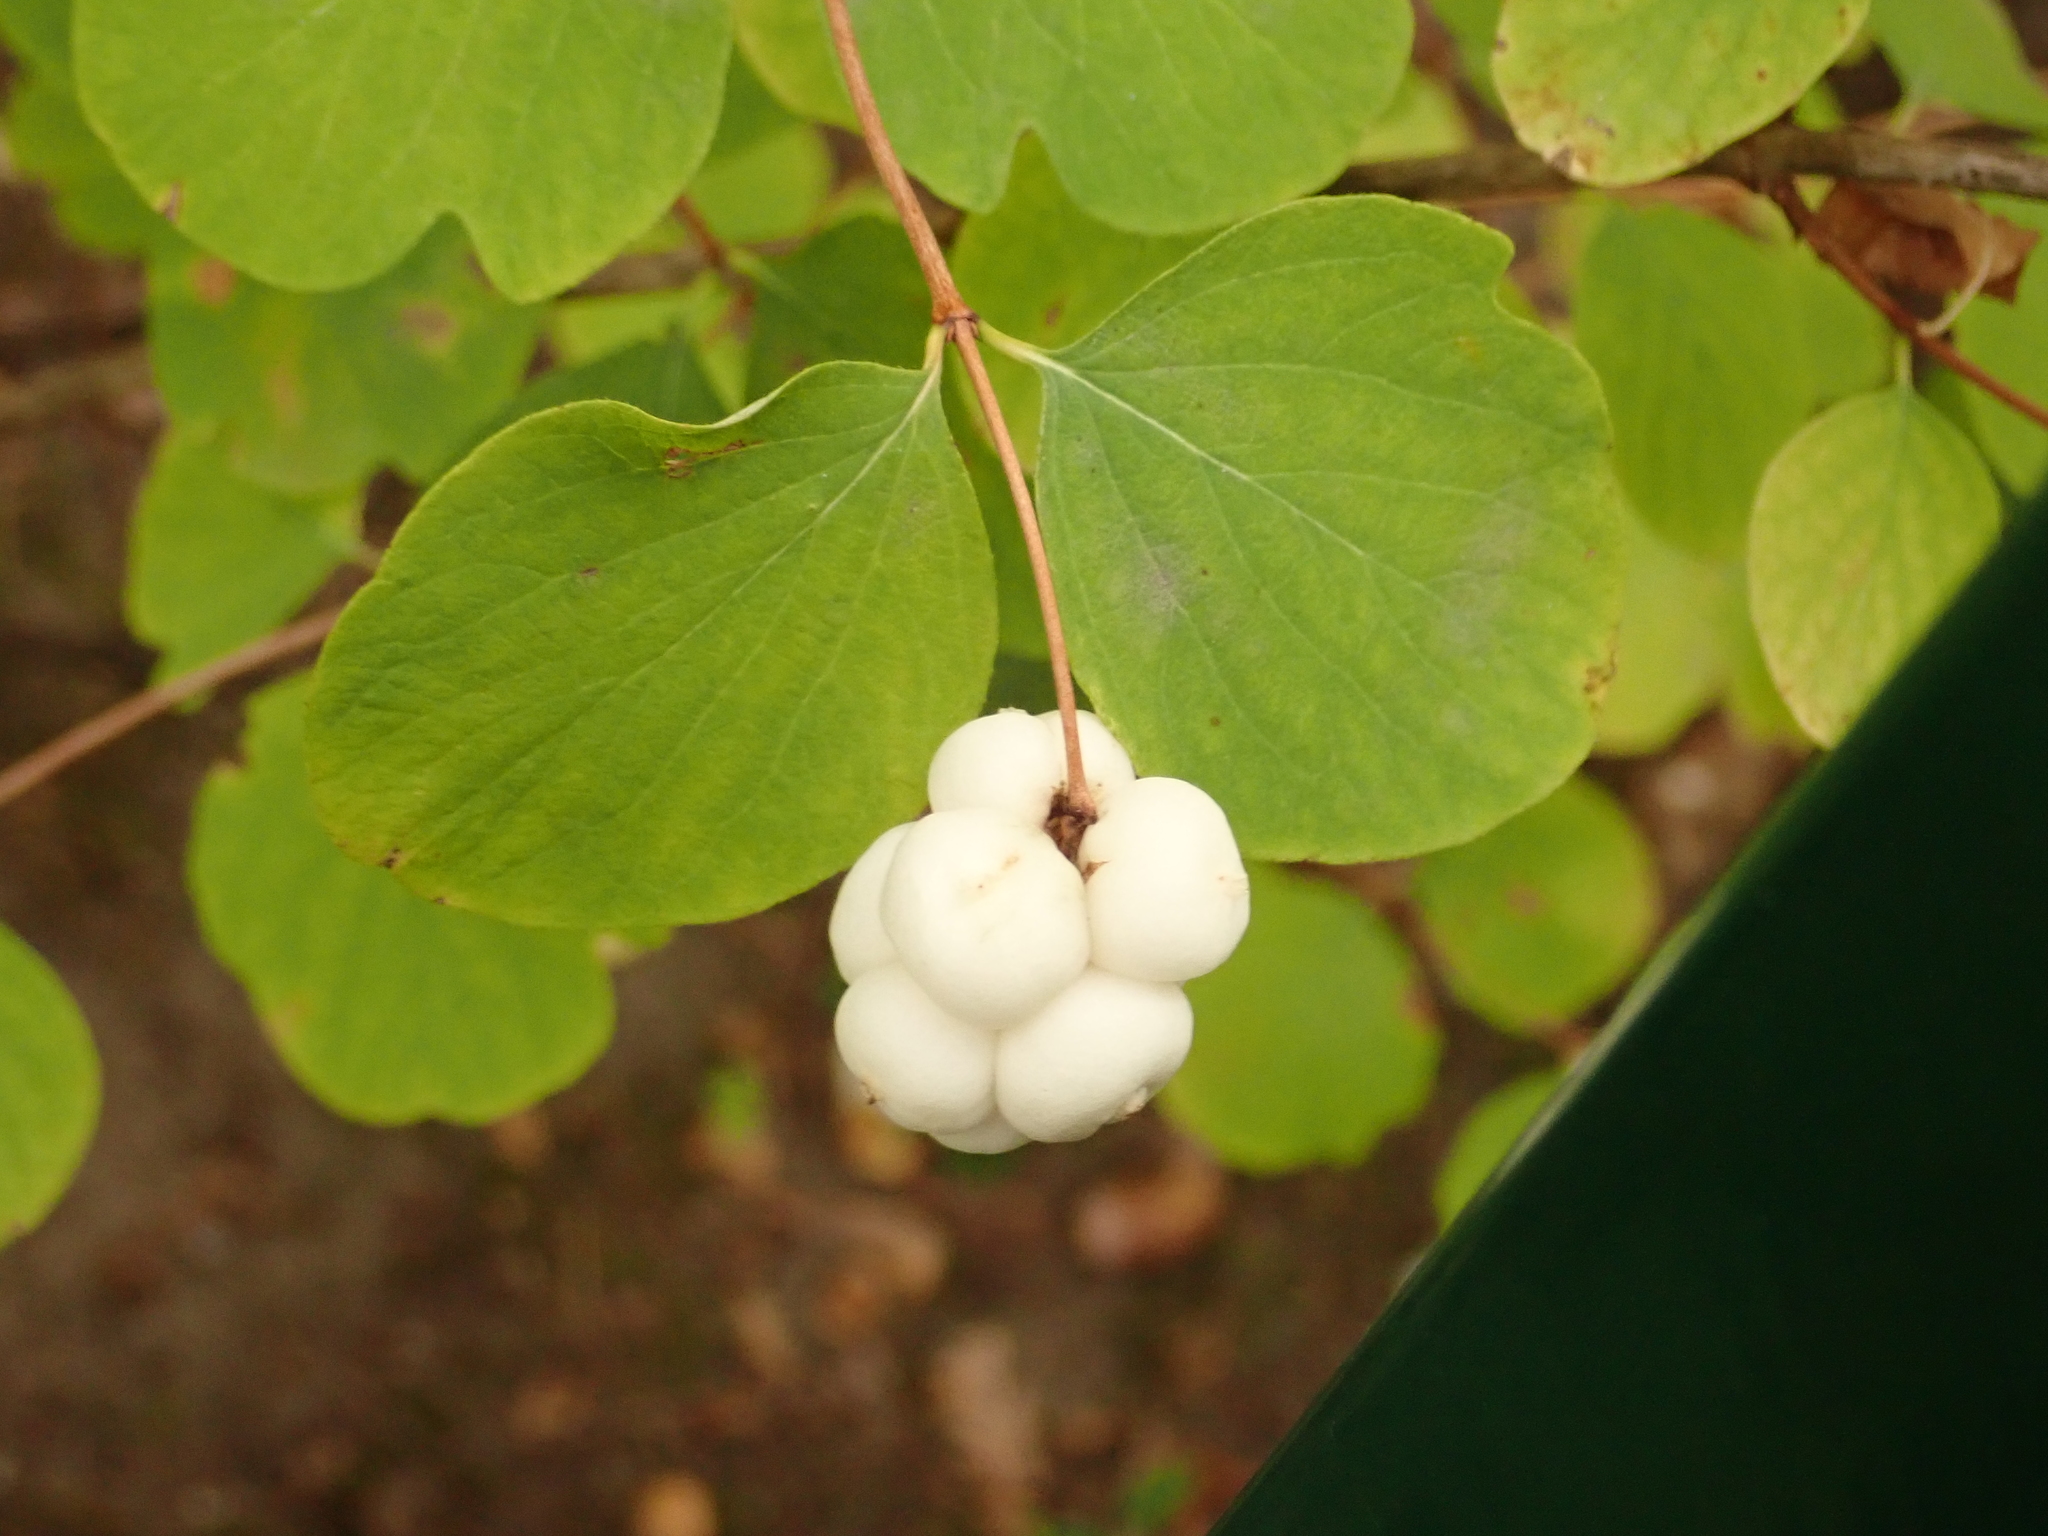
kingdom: Plantae
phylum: Tracheophyta
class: Magnoliopsida
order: Dipsacales
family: Caprifoliaceae
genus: Symphoricarpos
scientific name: Symphoricarpos albus
